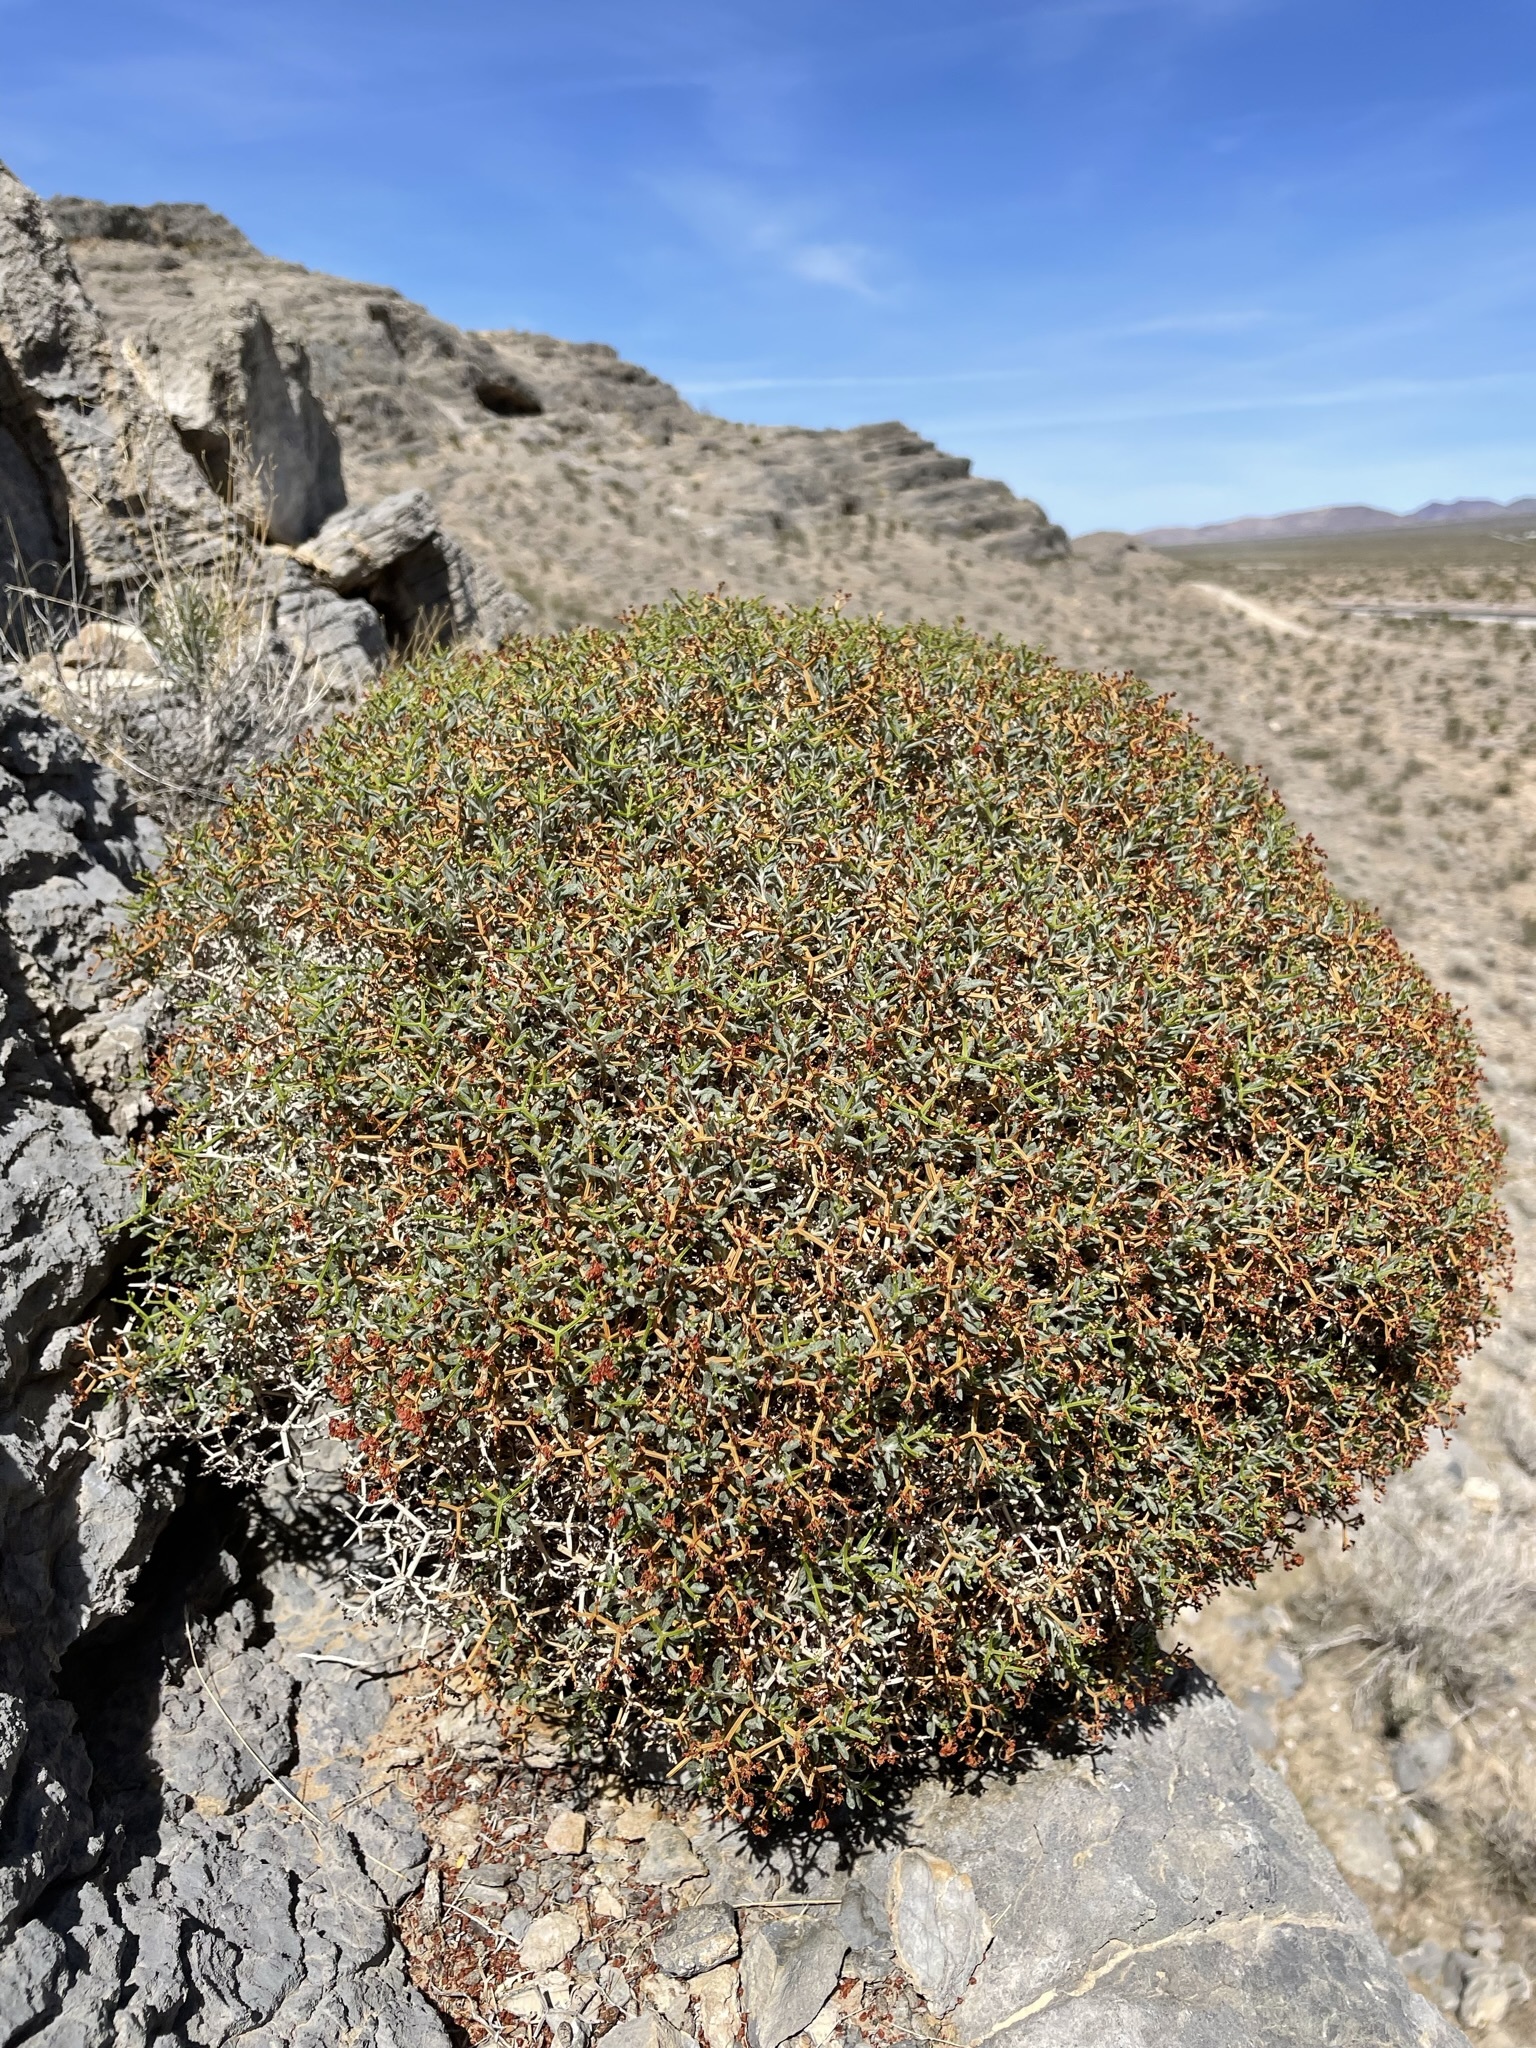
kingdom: Plantae
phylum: Tracheophyta
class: Magnoliopsida
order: Caryophyllales
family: Polygonaceae
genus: Eriogonum
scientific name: Eriogonum heermannii
